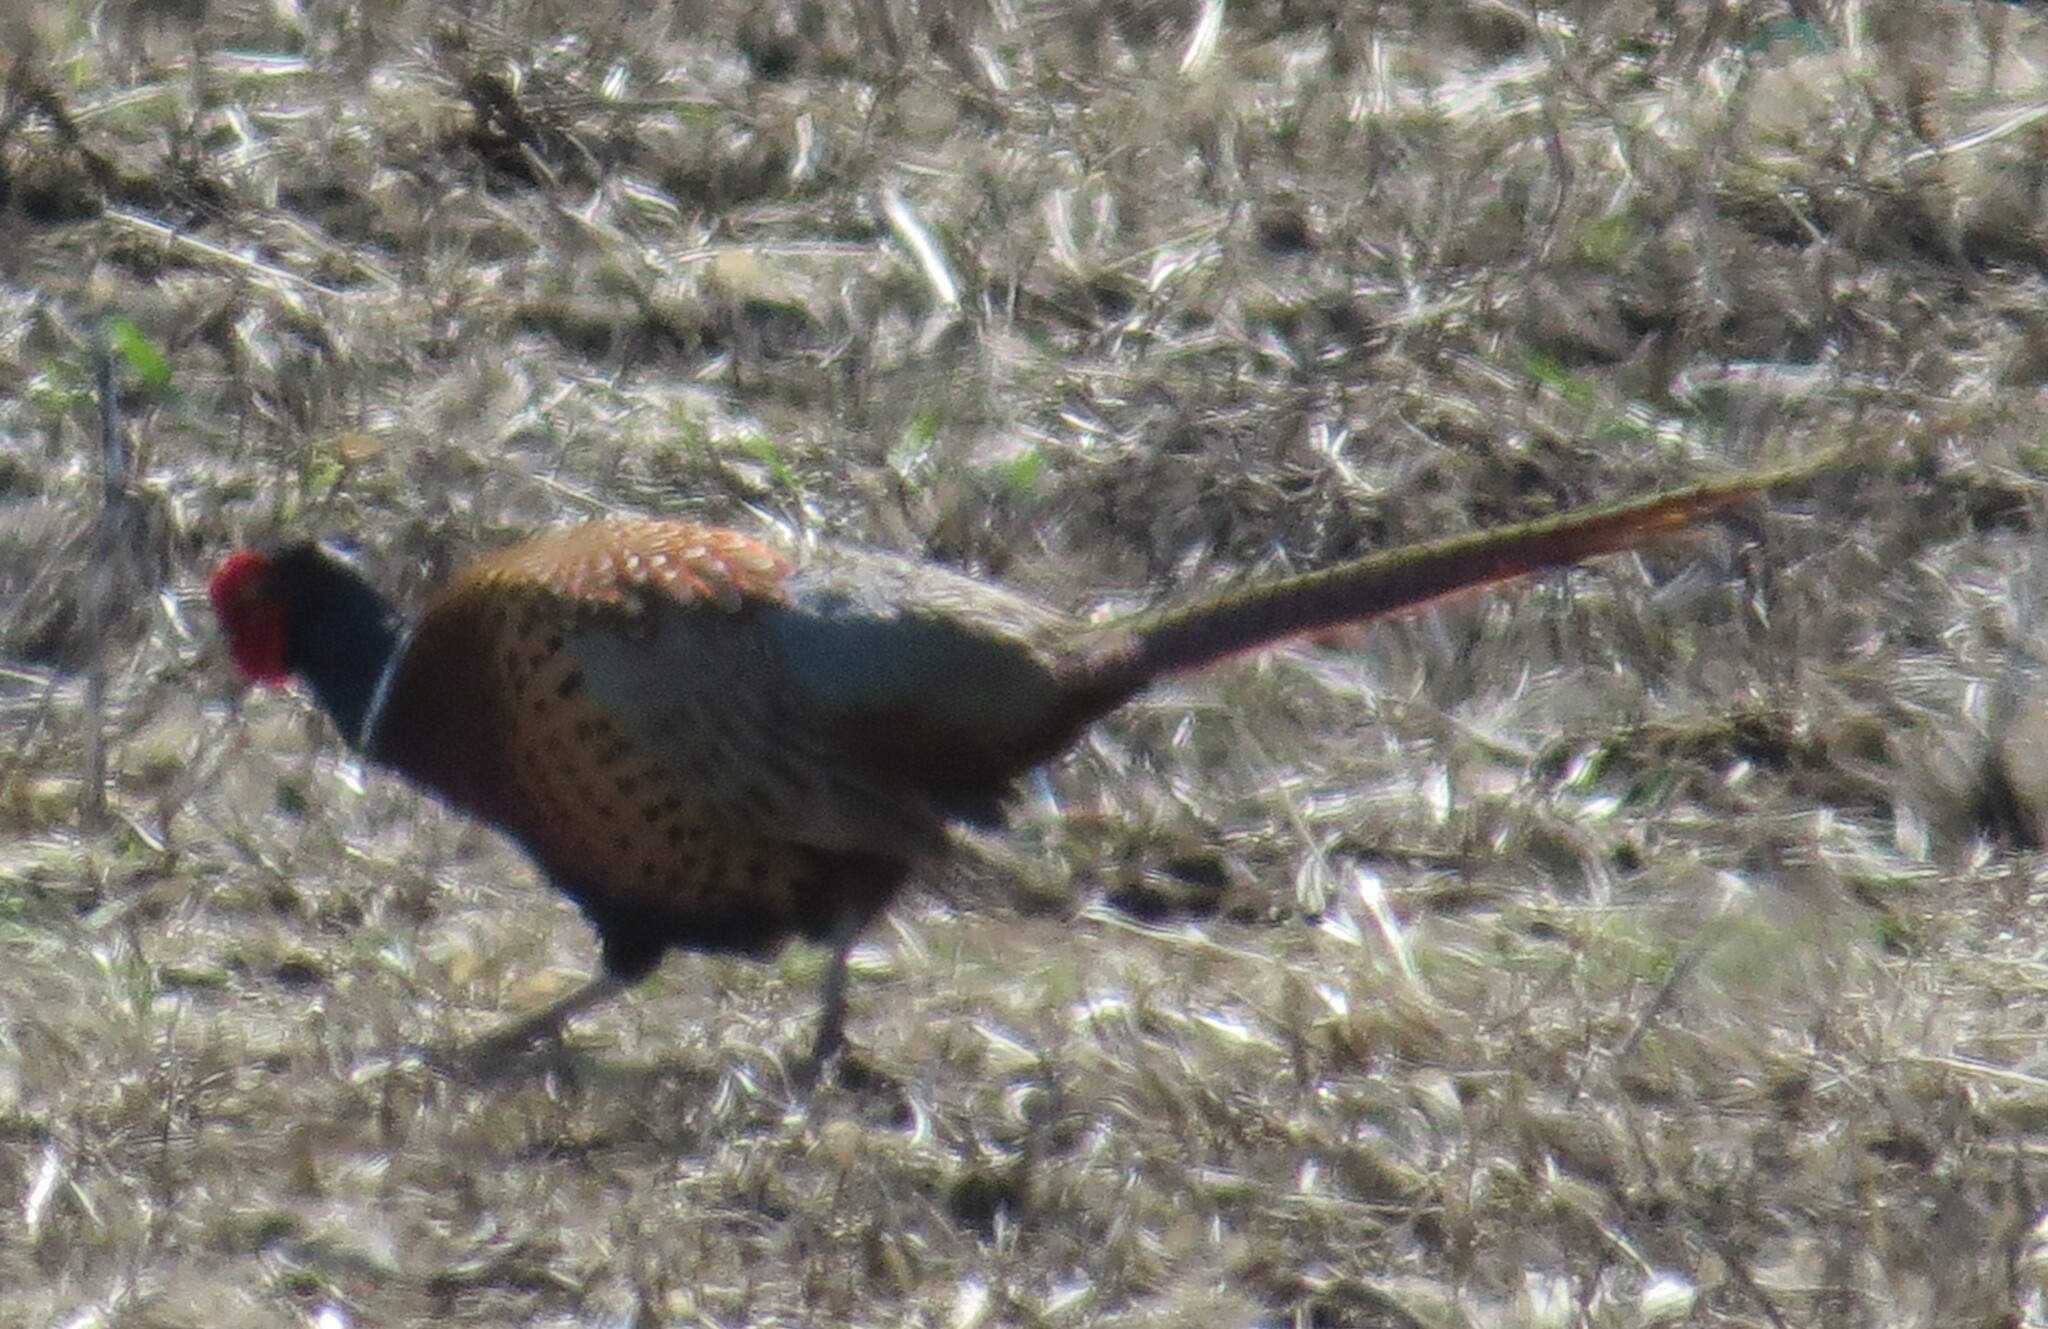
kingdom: Animalia
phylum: Chordata
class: Aves
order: Galliformes
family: Phasianidae
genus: Phasianus
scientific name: Phasianus colchicus
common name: Common pheasant
